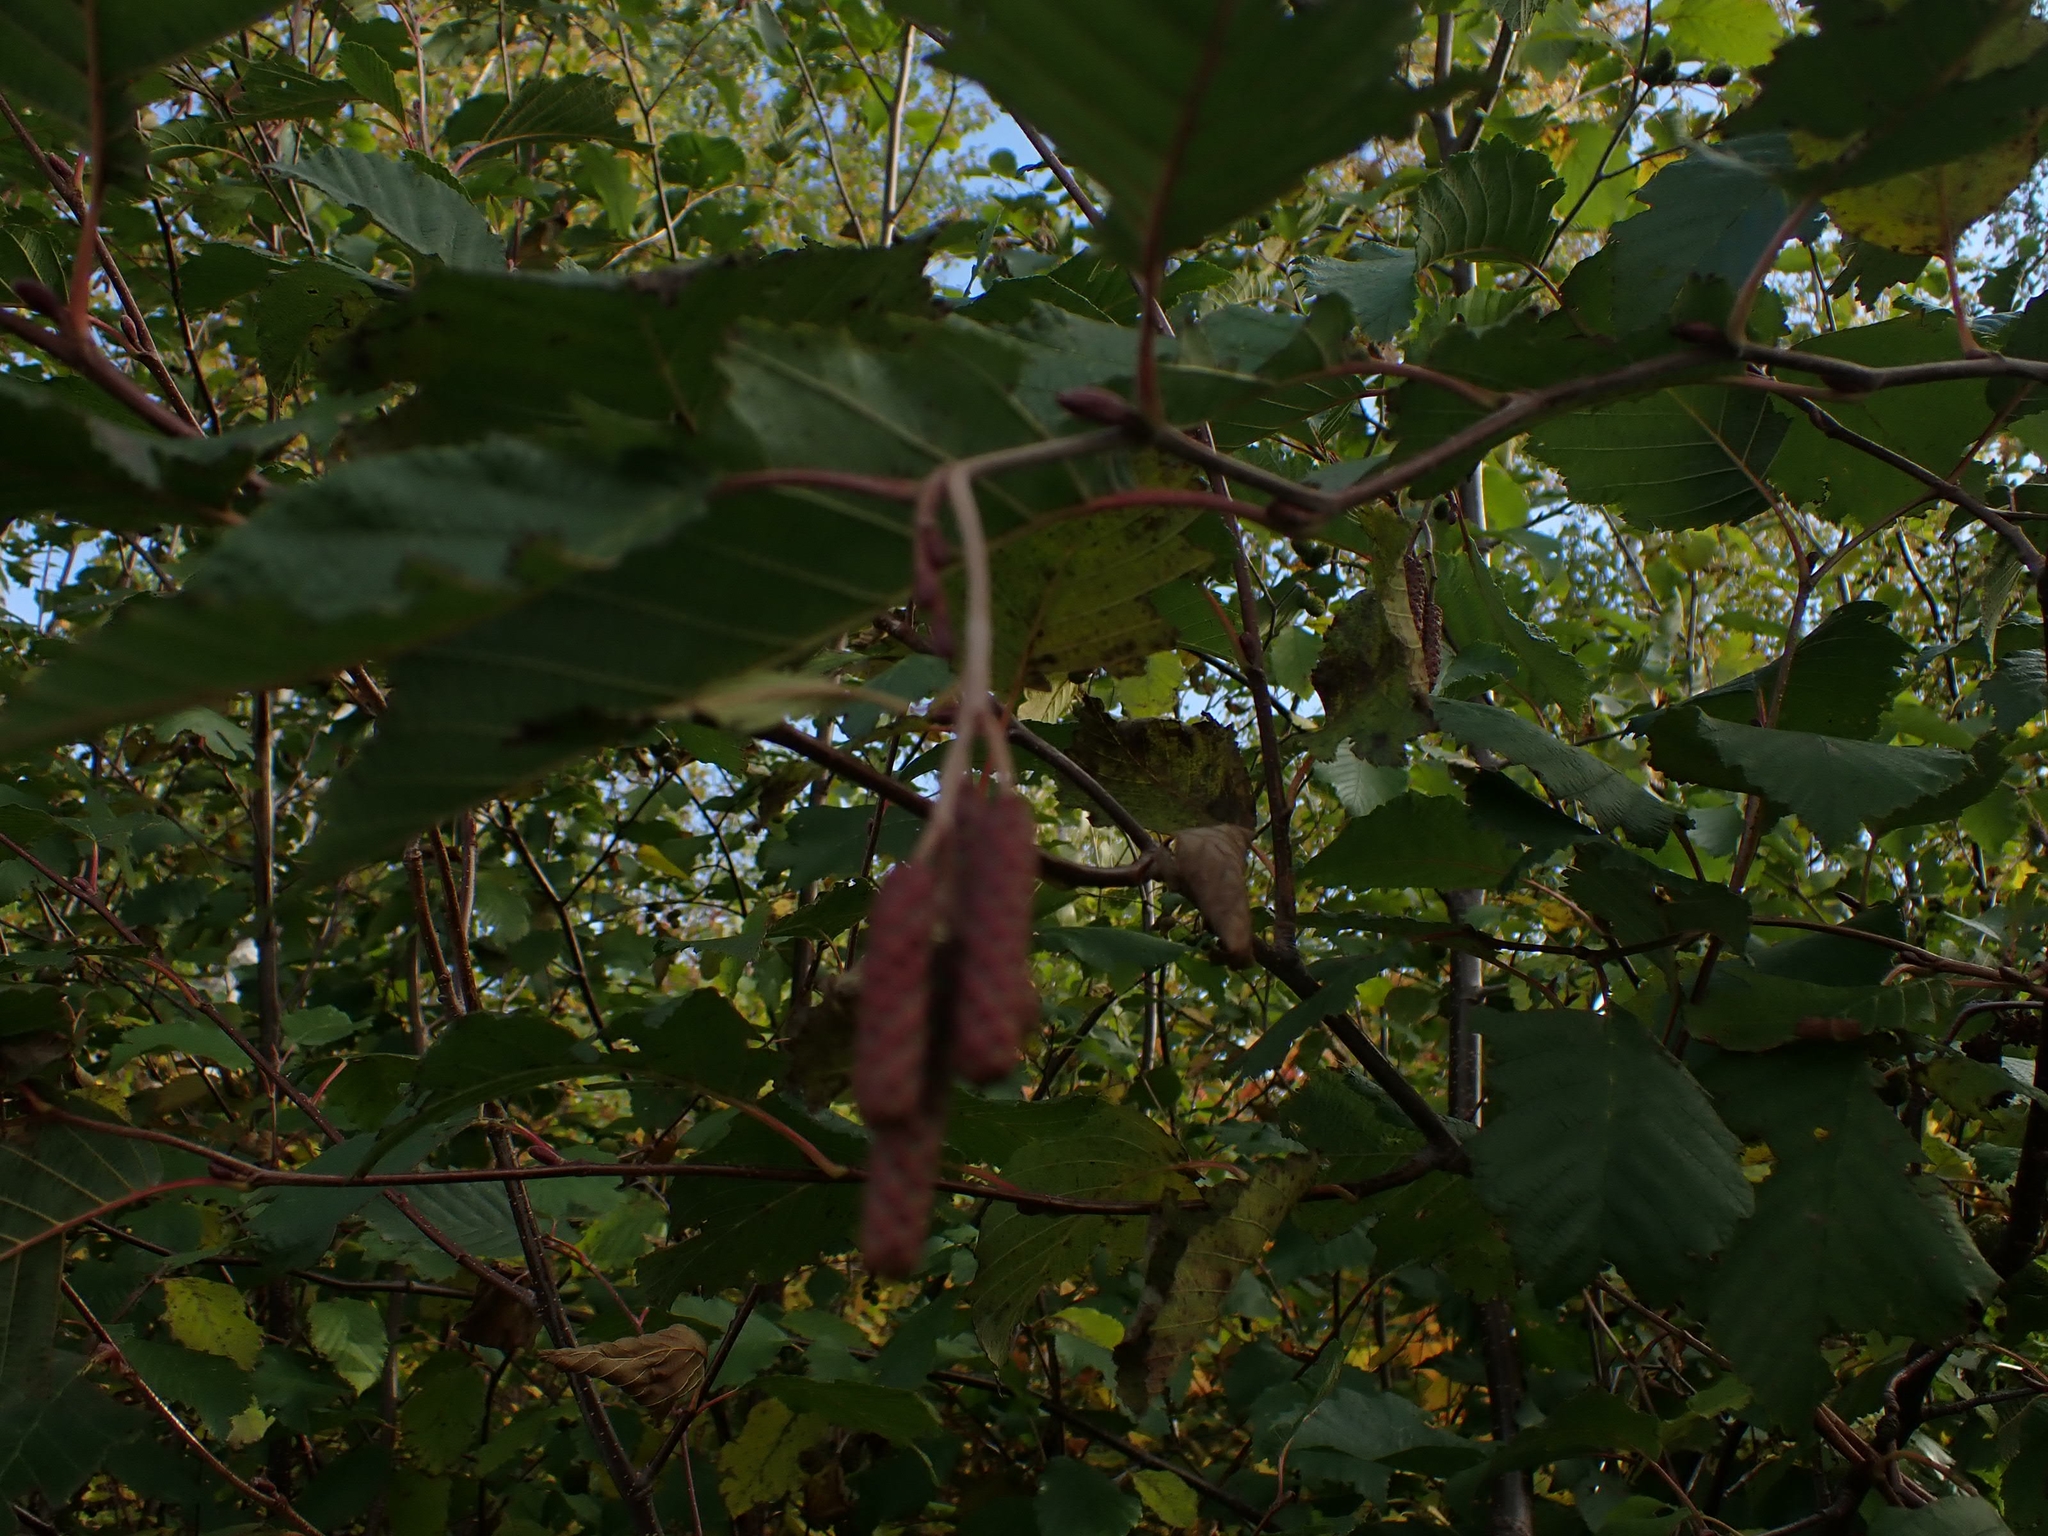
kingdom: Plantae
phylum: Tracheophyta
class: Magnoliopsida
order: Fagales
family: Betulaceae
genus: Alnus
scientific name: Alnus incana
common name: Grey alder
